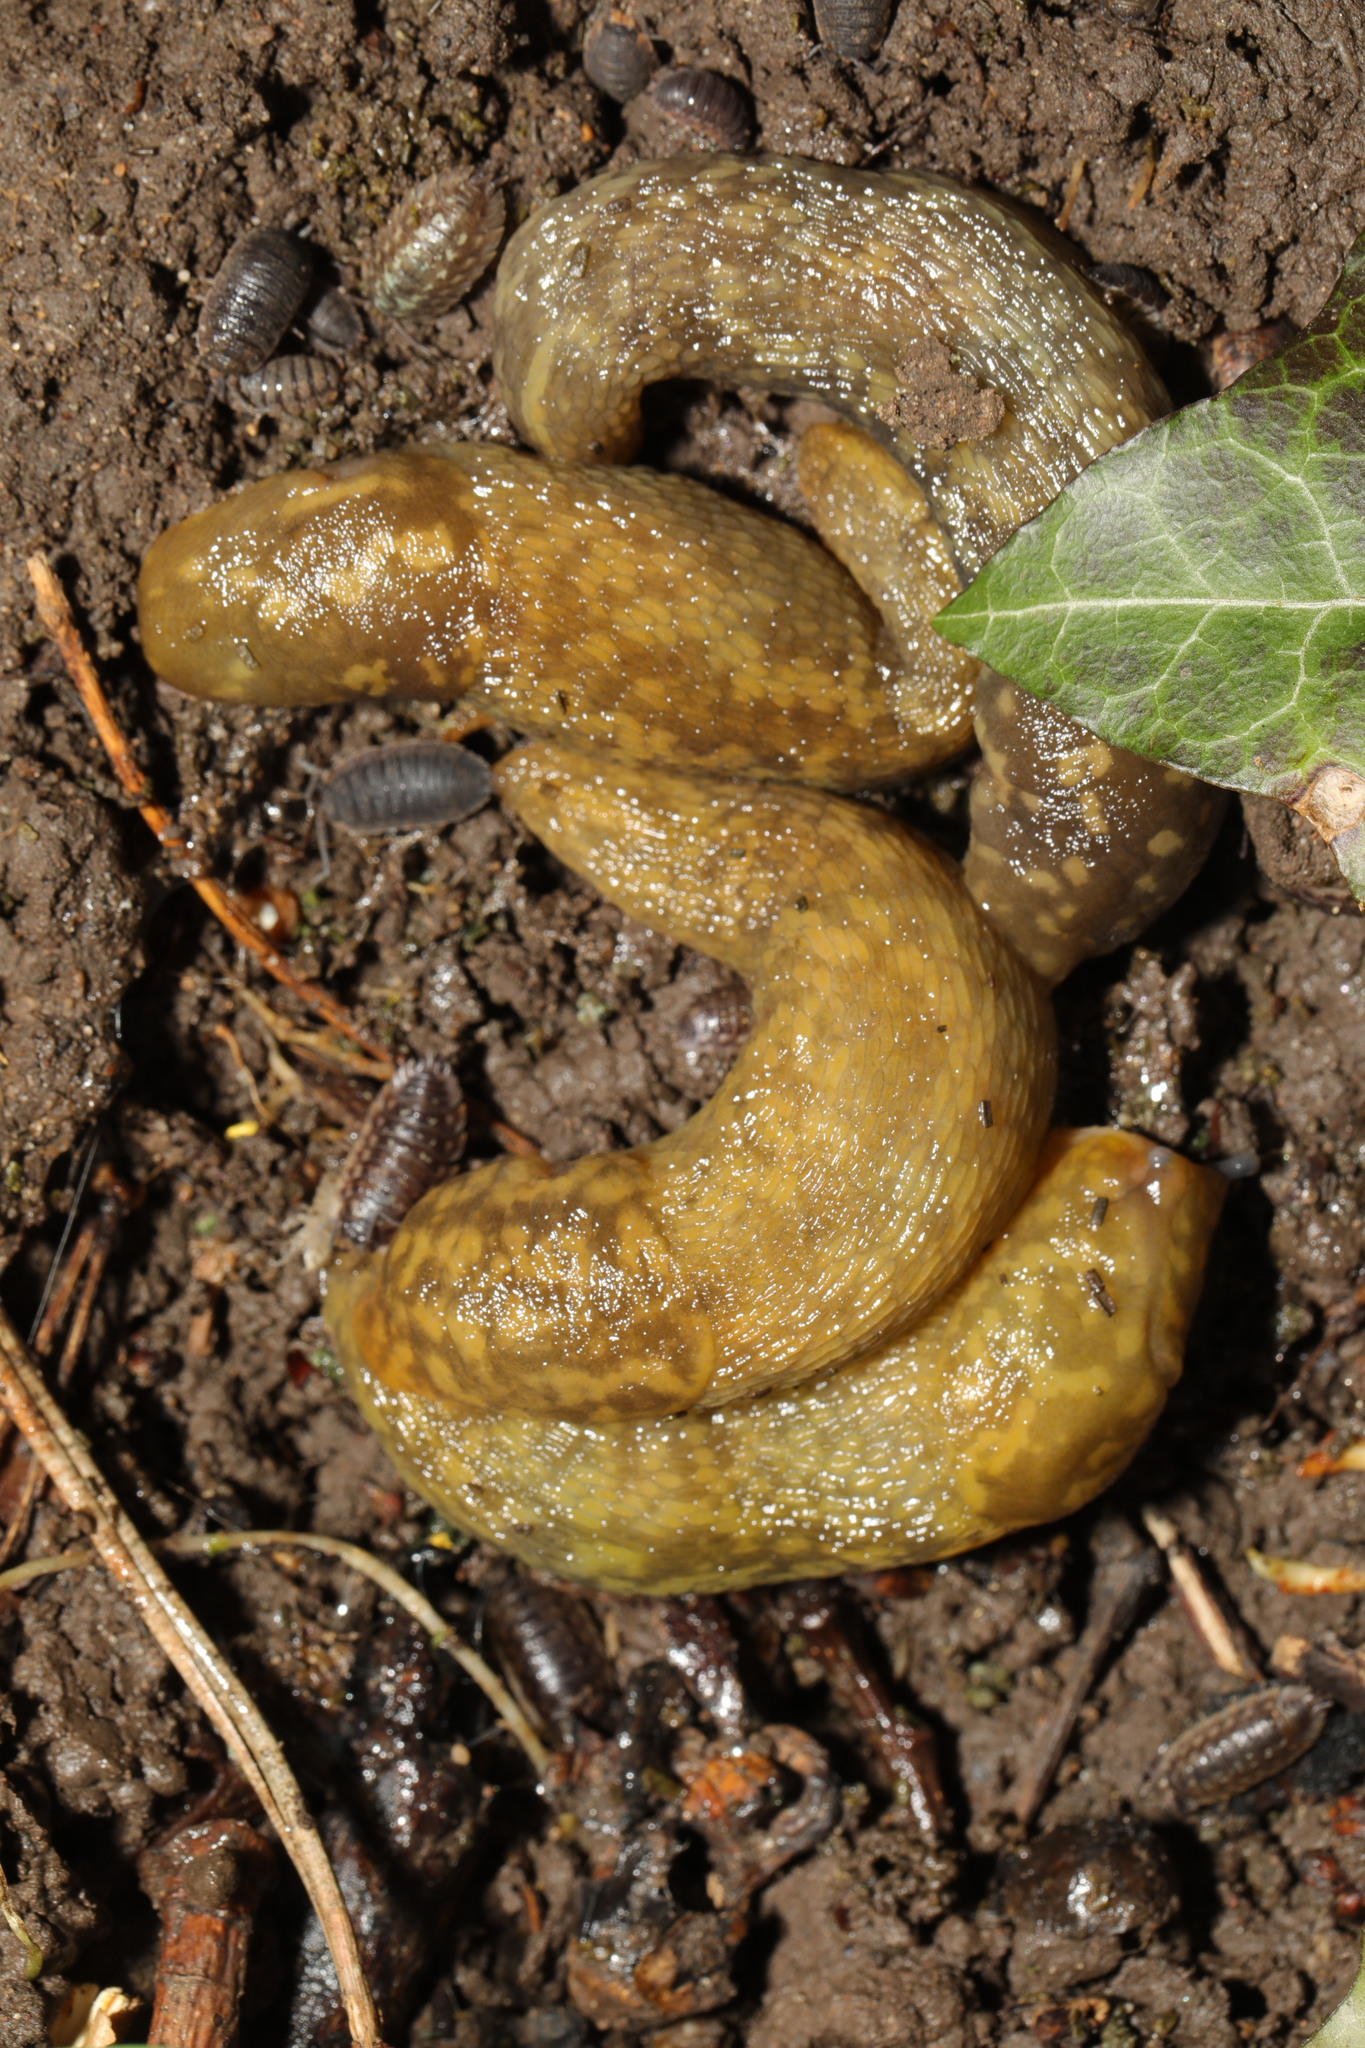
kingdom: Animalia
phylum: Mollusca
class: Gastropoda
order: Stylommatophora
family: Limacidae
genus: Limacus
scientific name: Limacus maculatus
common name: Irish yellow slug
